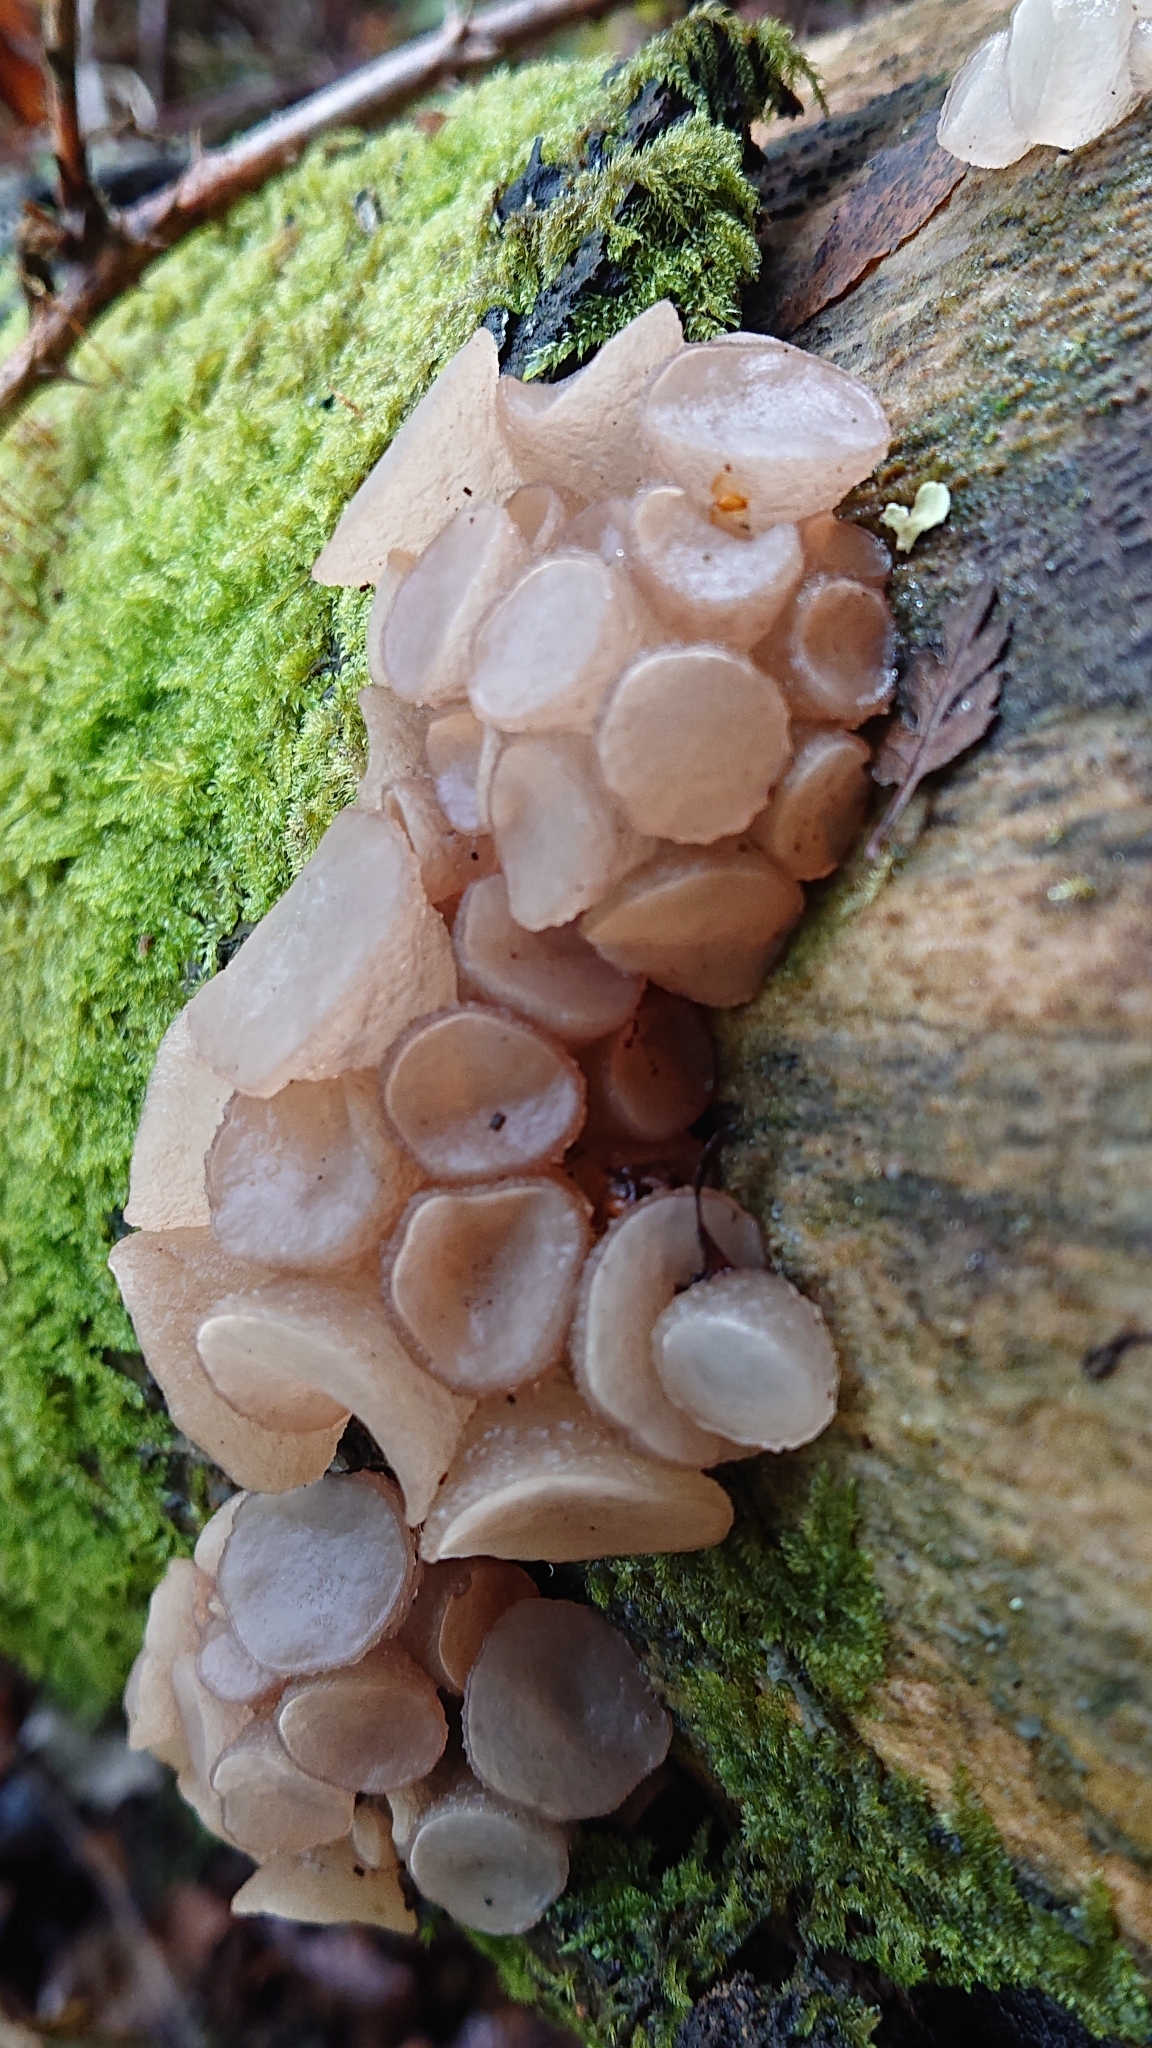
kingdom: Fungi
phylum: Ascomycota
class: Leotiomycetes
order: Helotiales
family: Gelatinodiscaceae
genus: Neobulgaria
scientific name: Neobulgaria pura
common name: Beech jelly-disc
